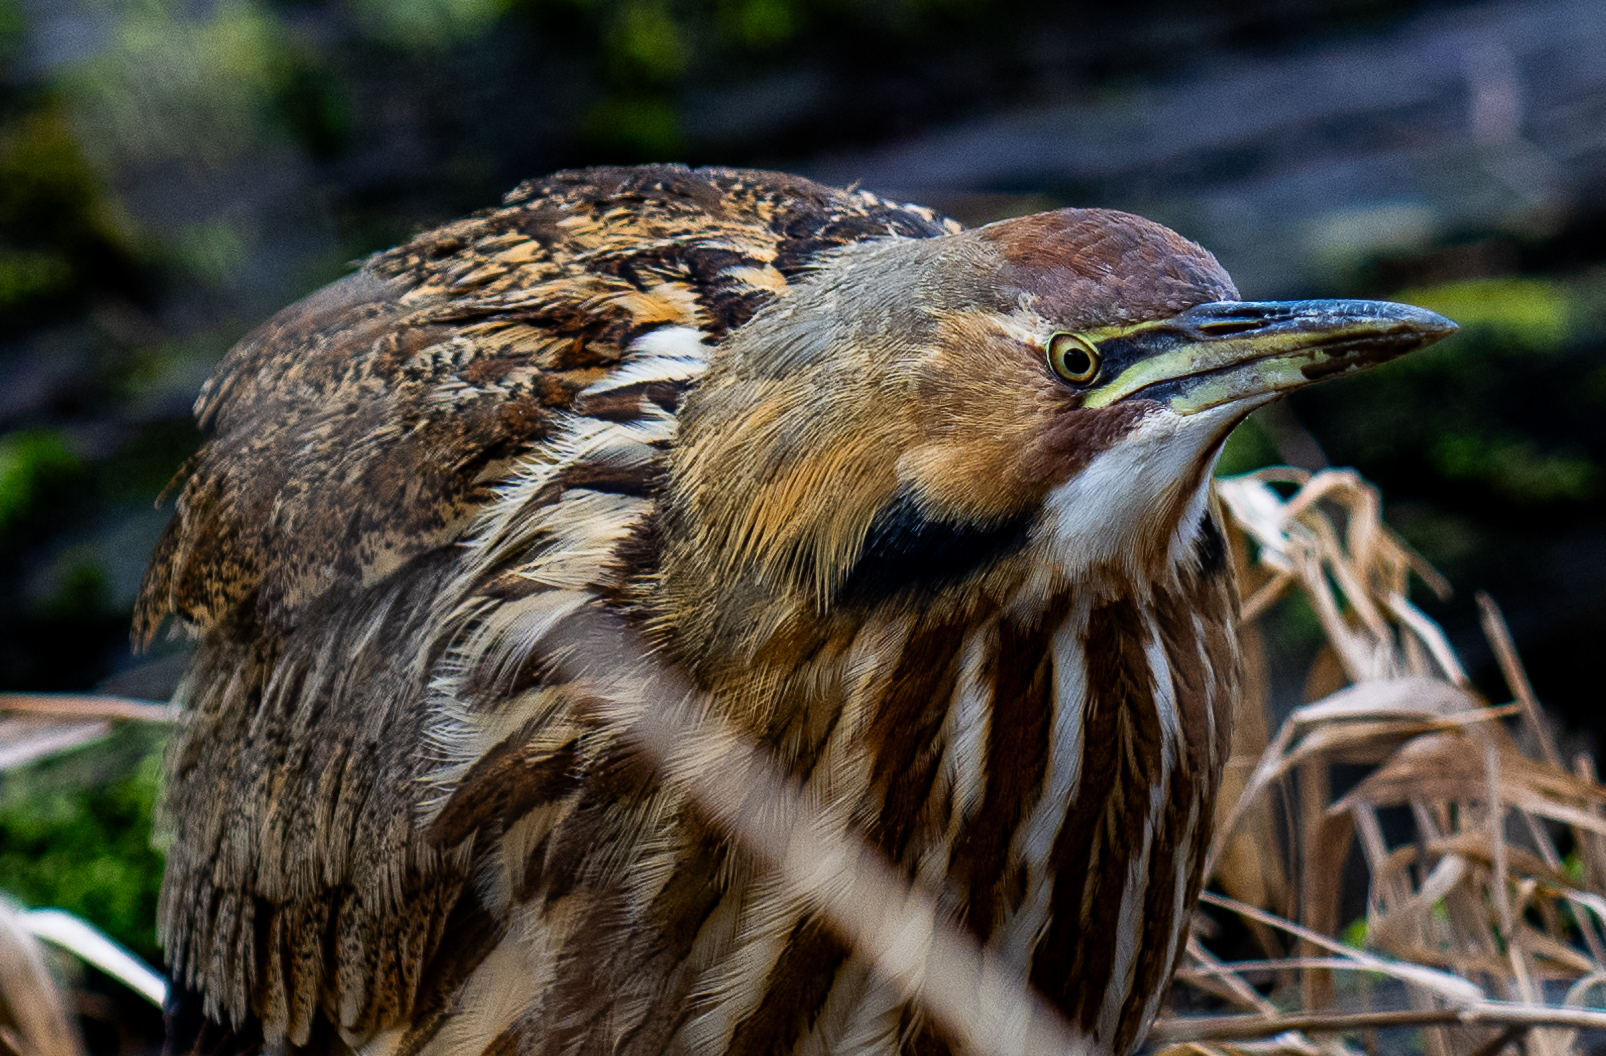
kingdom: Animalia
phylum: Chordata
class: Aves
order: Pelecaniformes
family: Ardeidae
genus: Botaurus
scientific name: Botaurus lentiginosus
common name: American bittern
